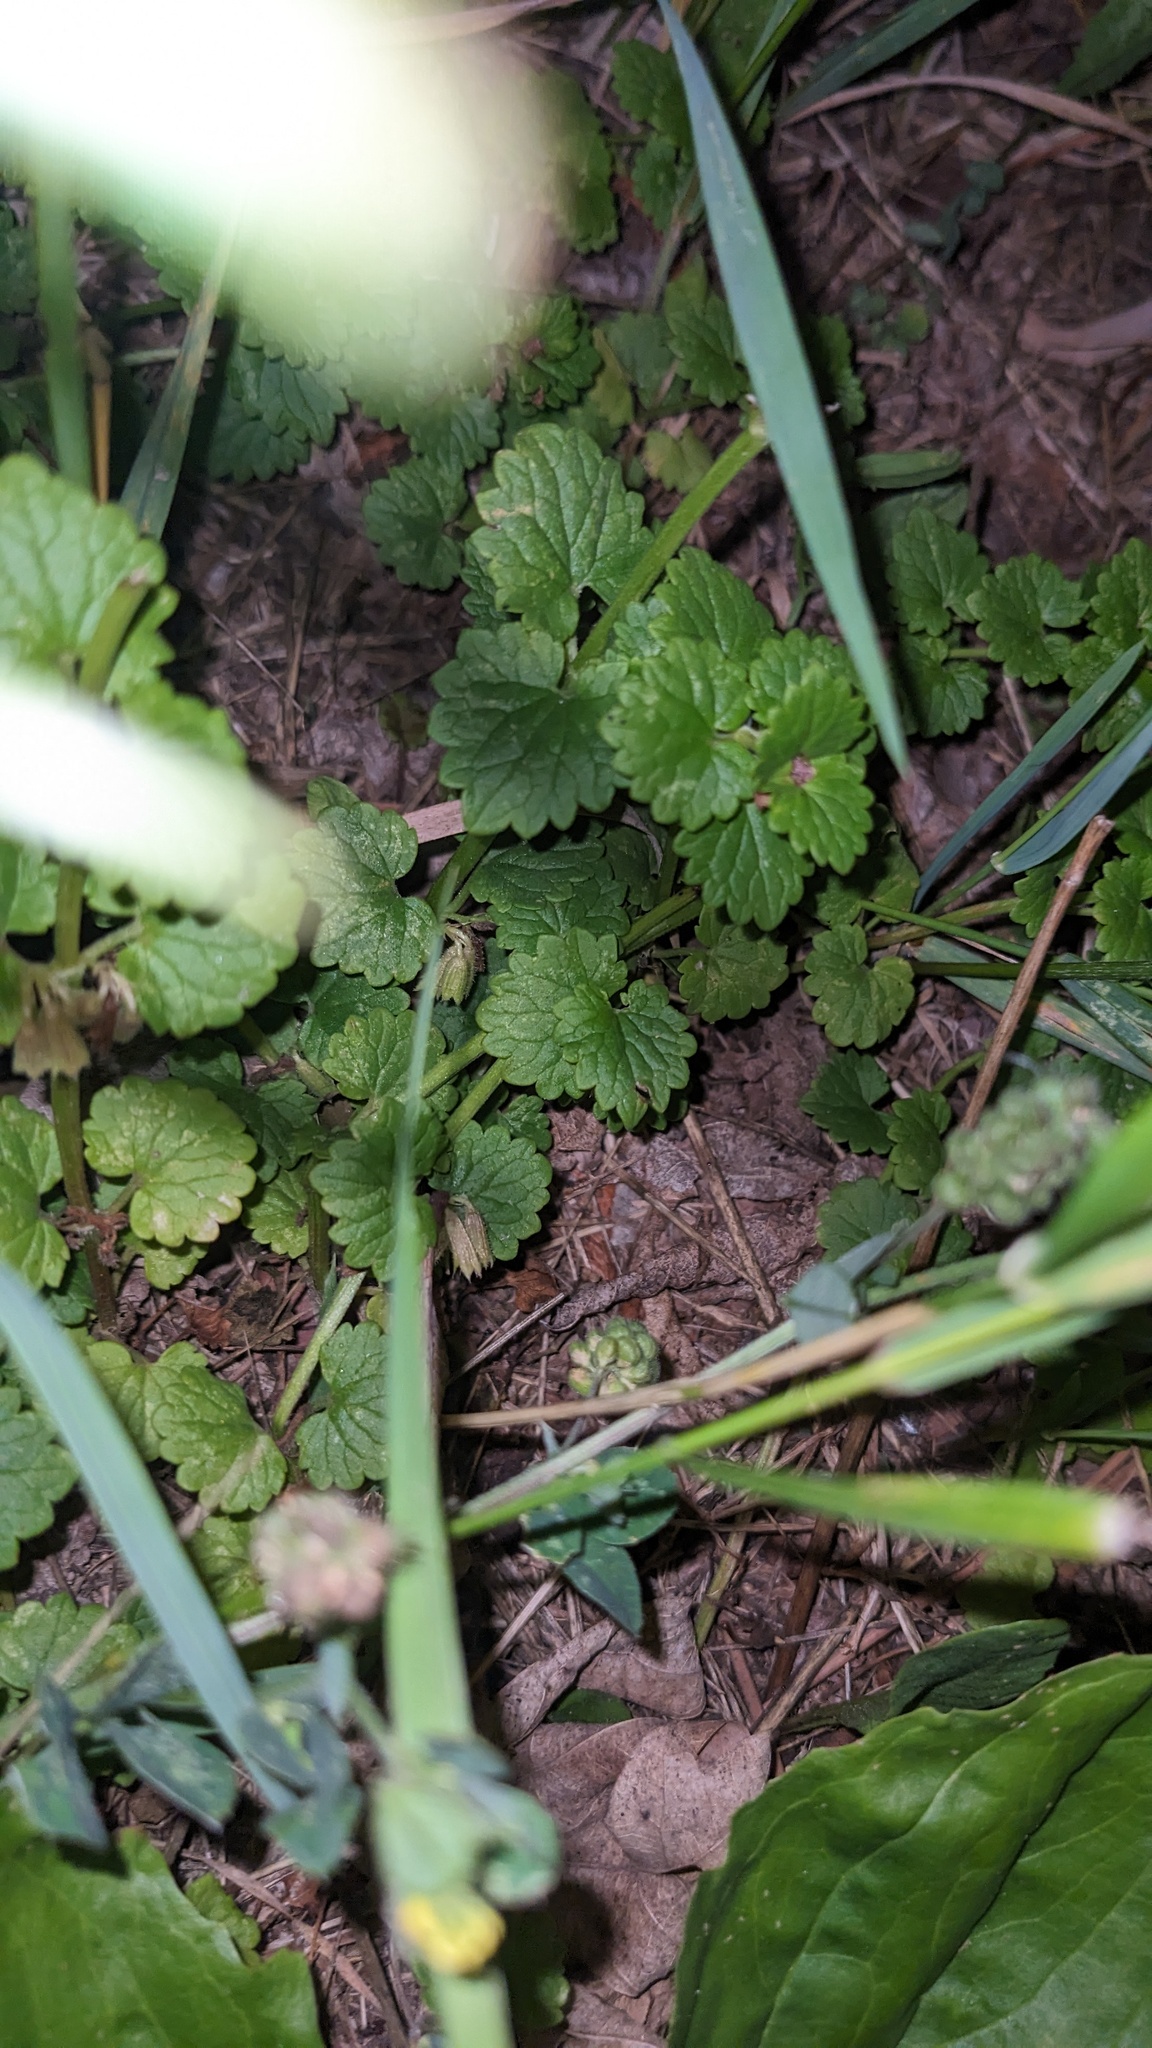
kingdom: Plantae
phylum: Tracheophyta
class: Magnoliopsida
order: Lamiales
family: Lamiaceae
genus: Glechoma
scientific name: Glechoma hederacea
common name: Ground ivy
